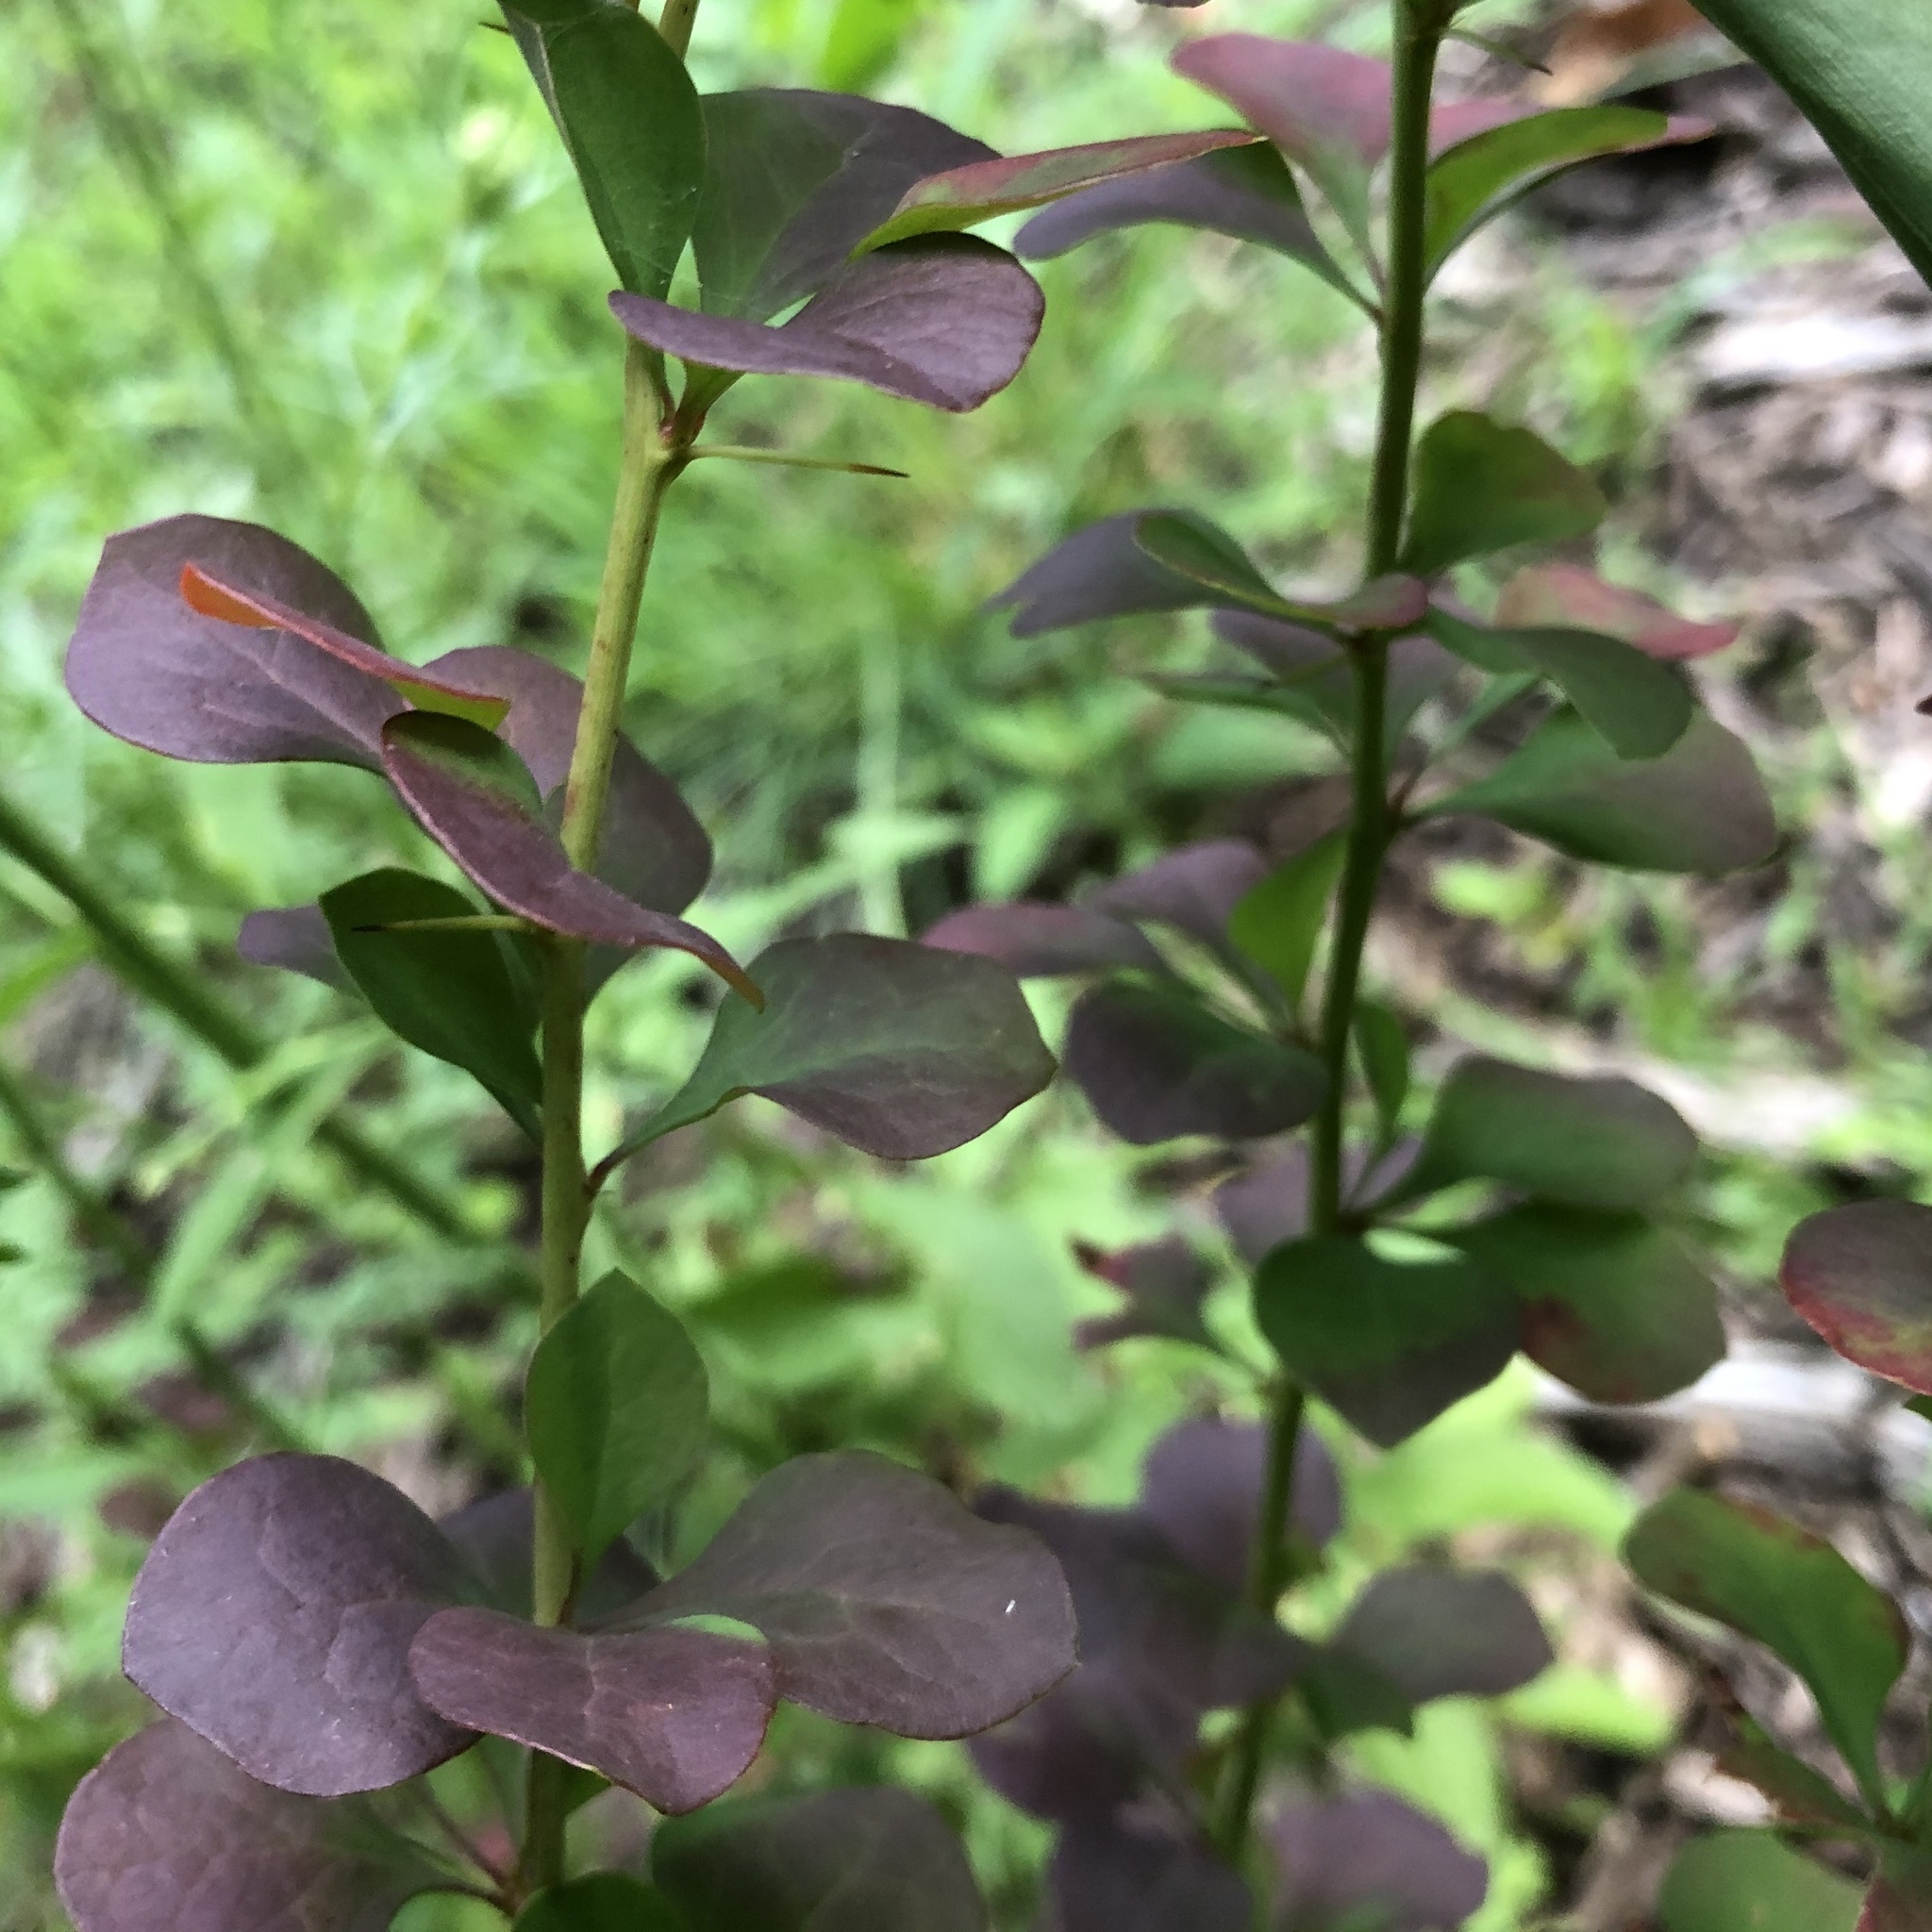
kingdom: Plantae
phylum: Tracheophyta
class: Magnoliopsida
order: Ranunculales
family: Berberidaceae
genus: Berberis
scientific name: Berberis thunbergii
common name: Japanese barberry
